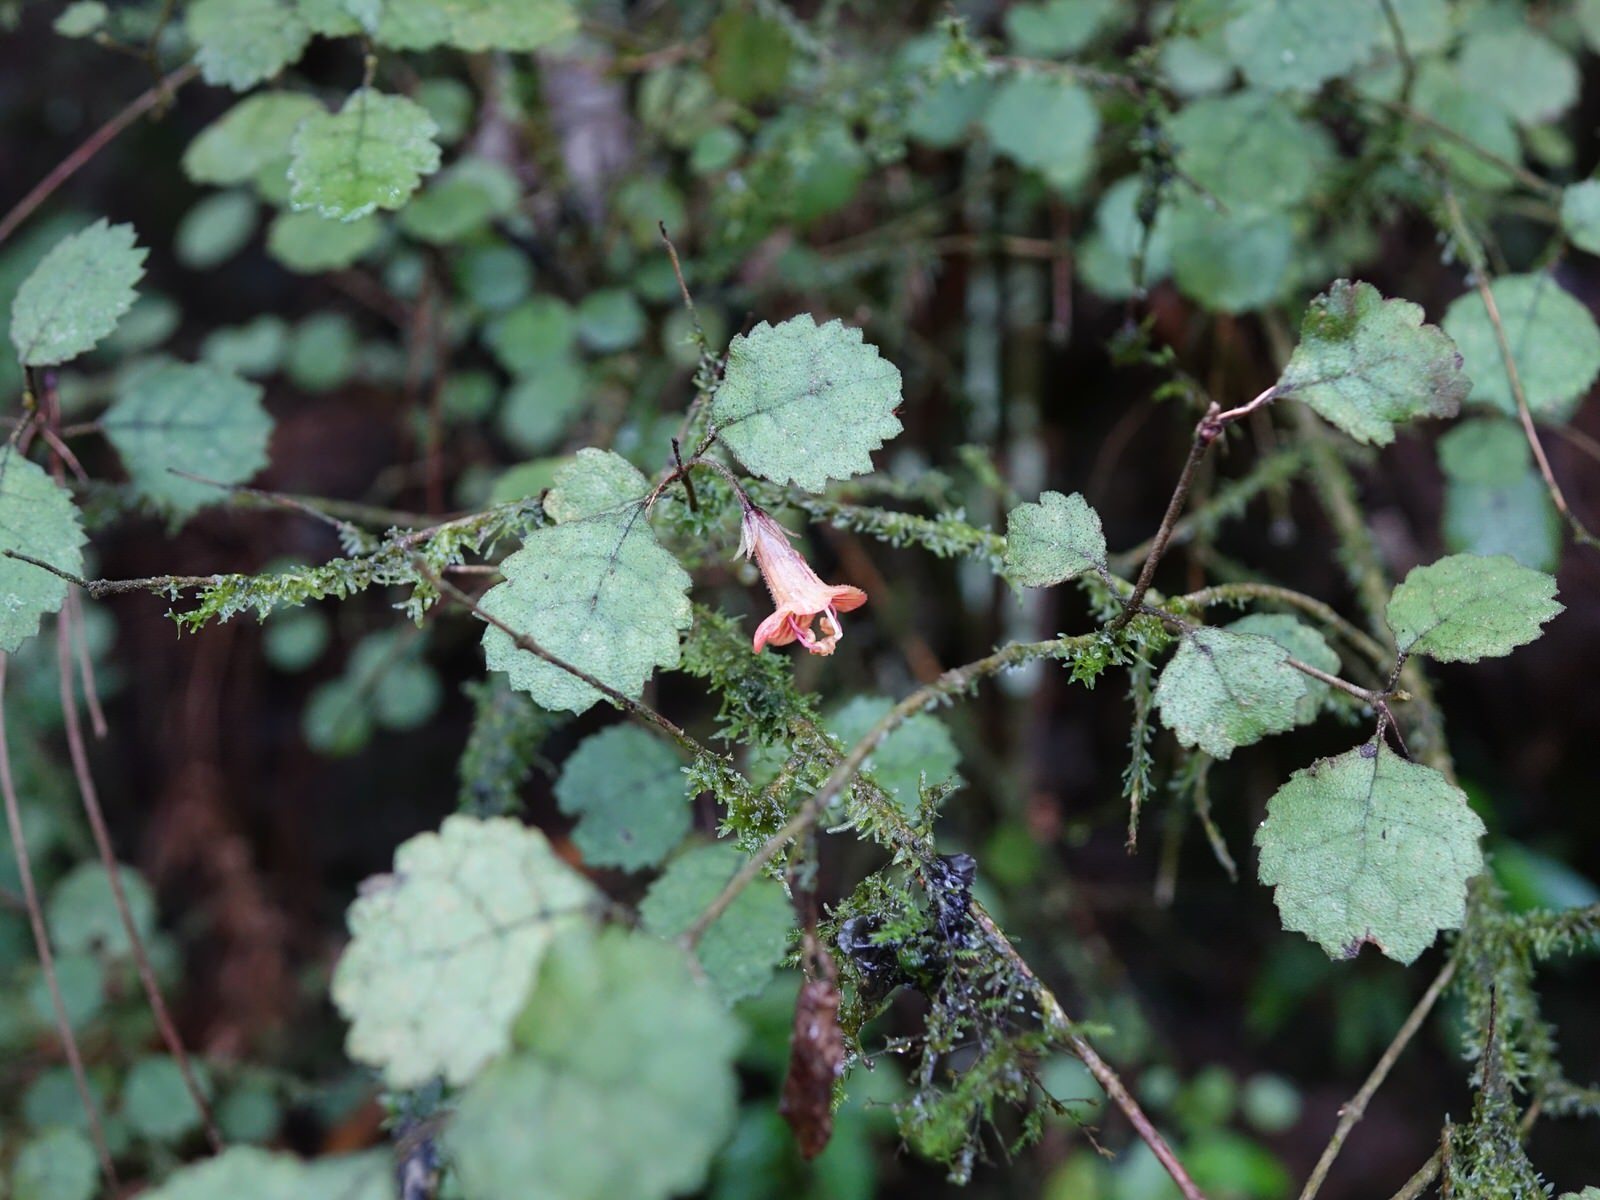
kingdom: Plantae
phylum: Tracheophyta
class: Magnoliopsida
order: Lamiales
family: Gesneriaceae
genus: Rhabdothamnus
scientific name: Rhabdothamnus solandri
